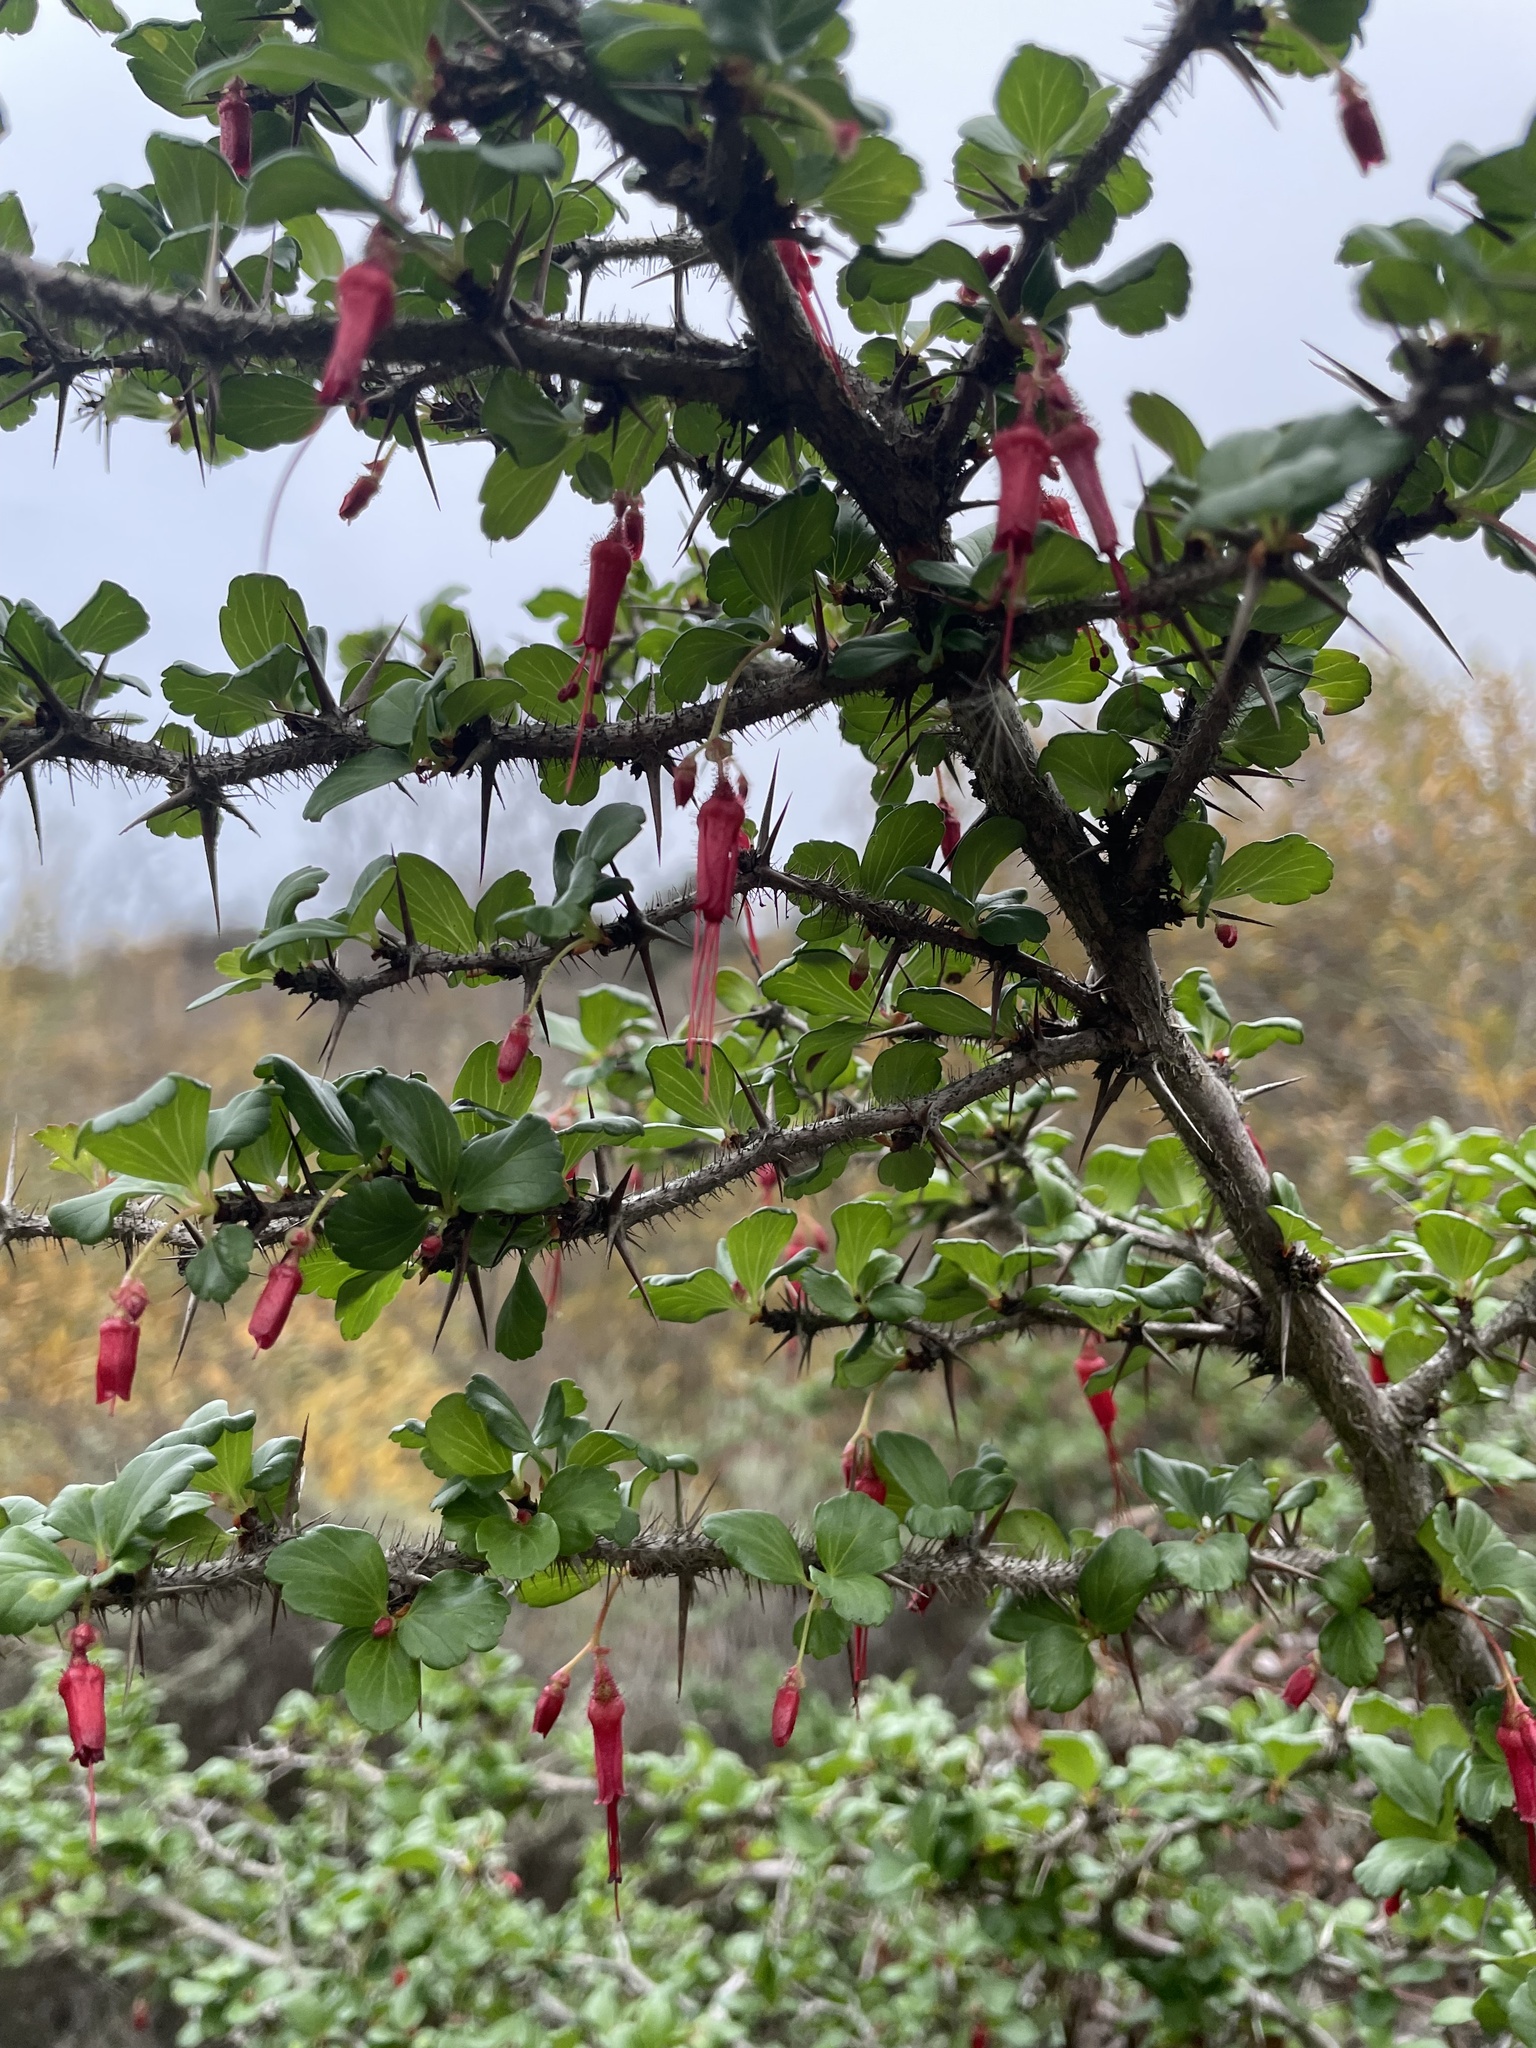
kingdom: Plantae
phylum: Tracheophyta
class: Magnoliopsida
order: Saxifragales
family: Grossulariaceae
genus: Ribes
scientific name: Ribes speciosum
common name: Fuchsia-flower gooseberry
